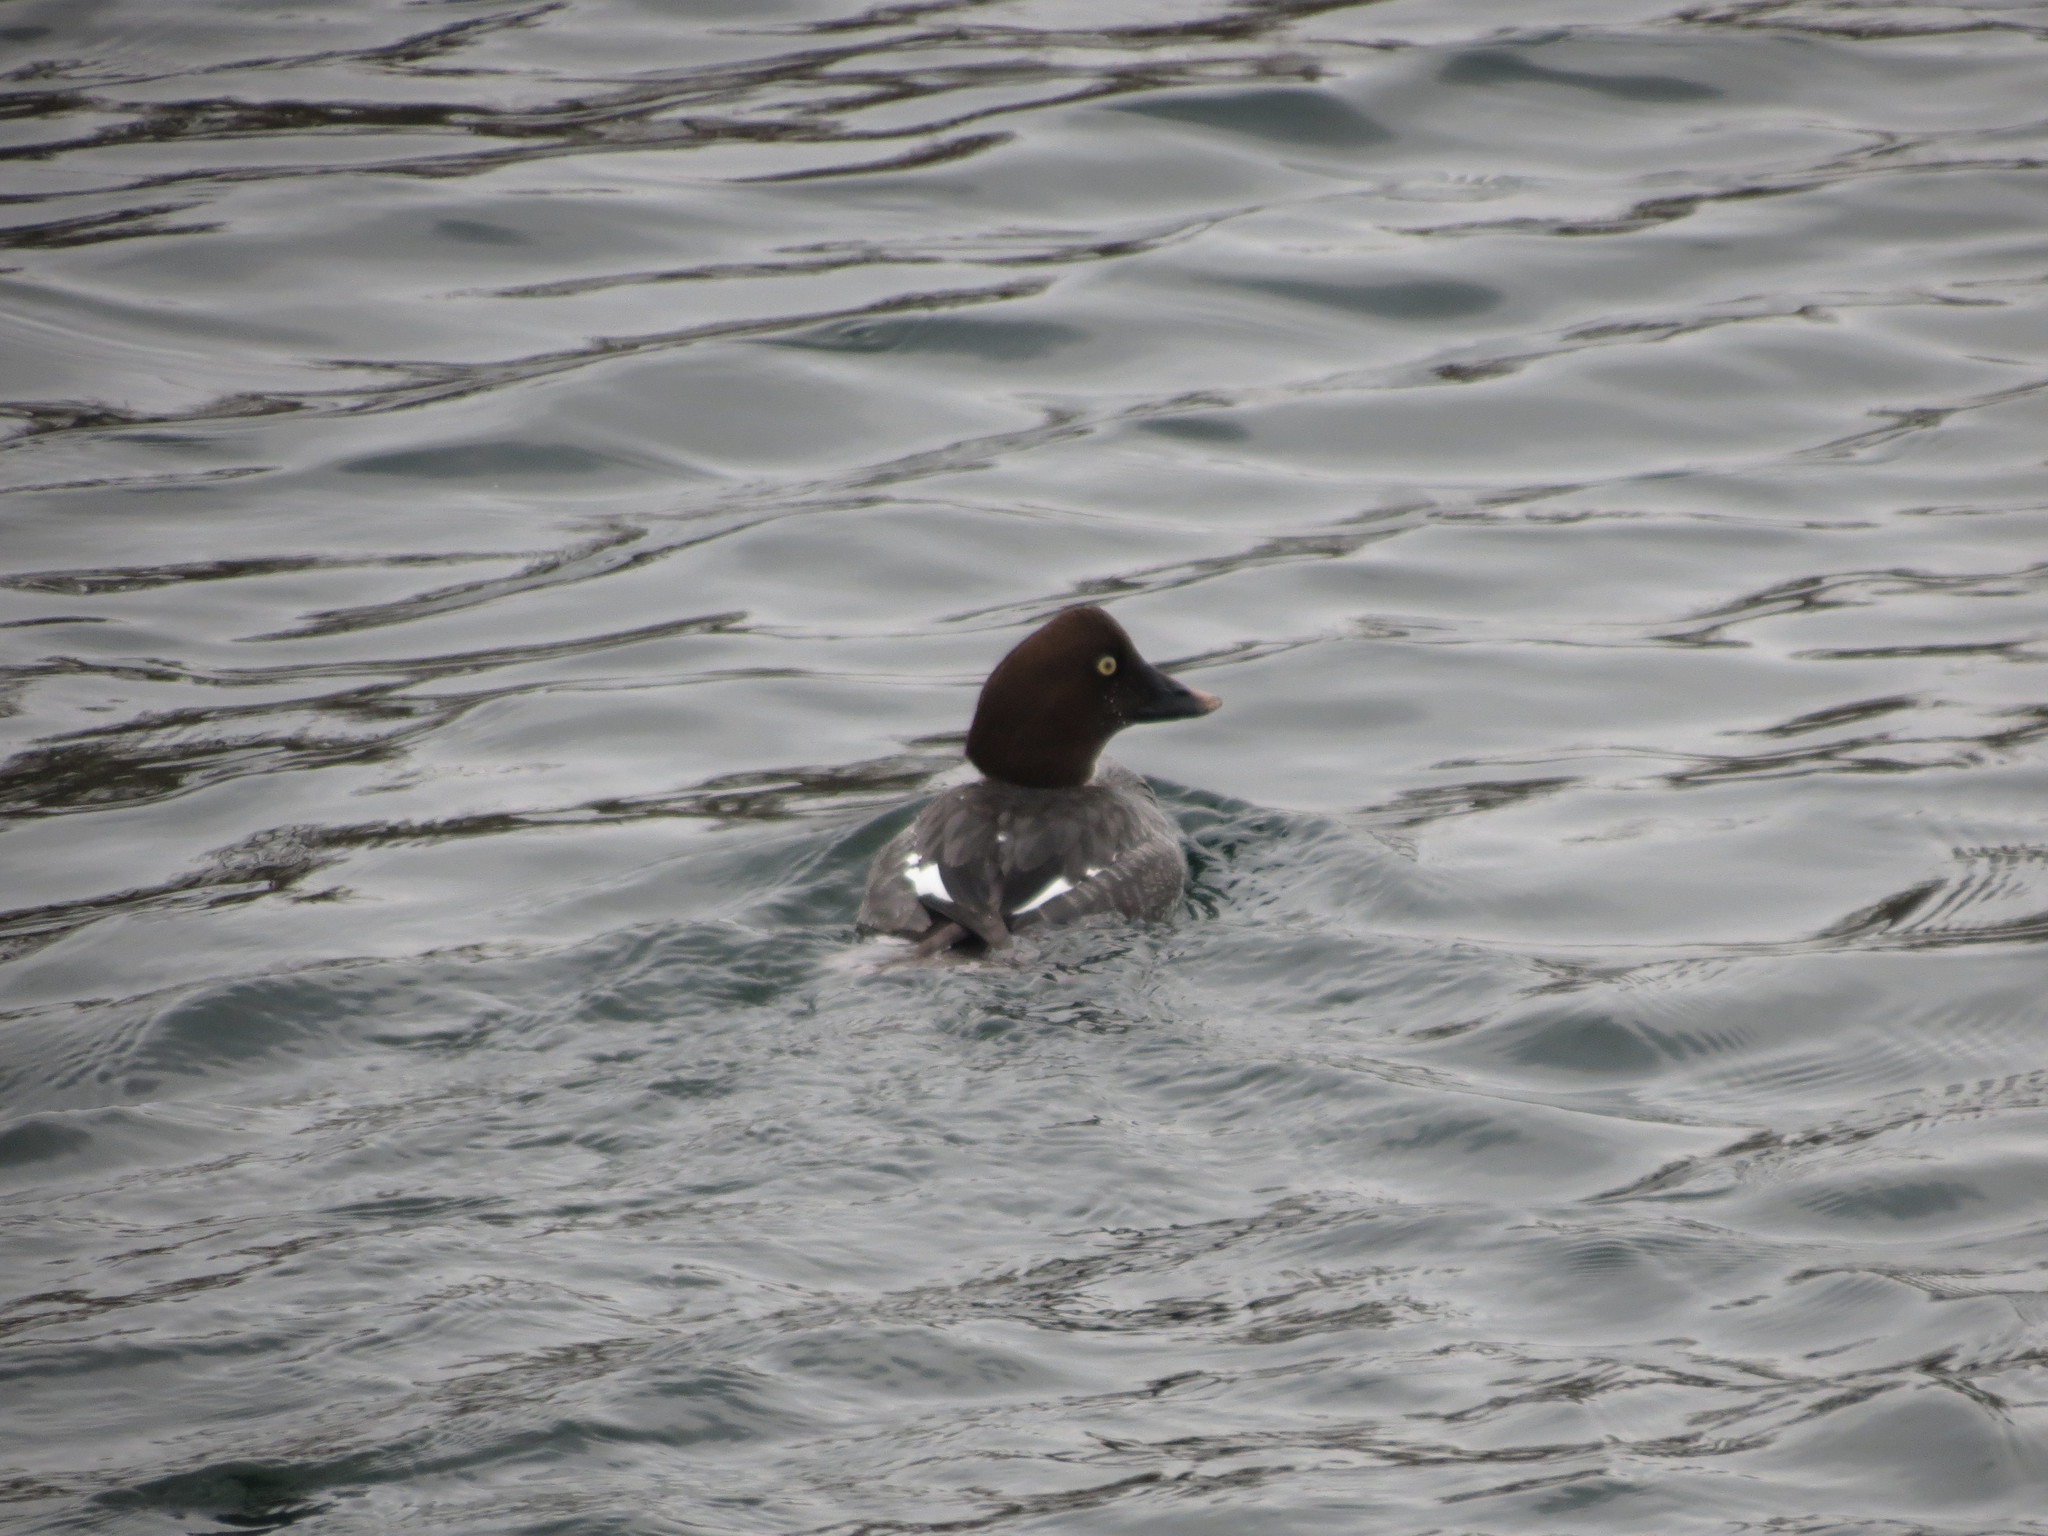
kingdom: Animalia
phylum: Chordata
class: Aves
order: Anseriformes
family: Anatidae
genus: Bucephala
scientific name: Bucephala clangula
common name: Common goldeneye
